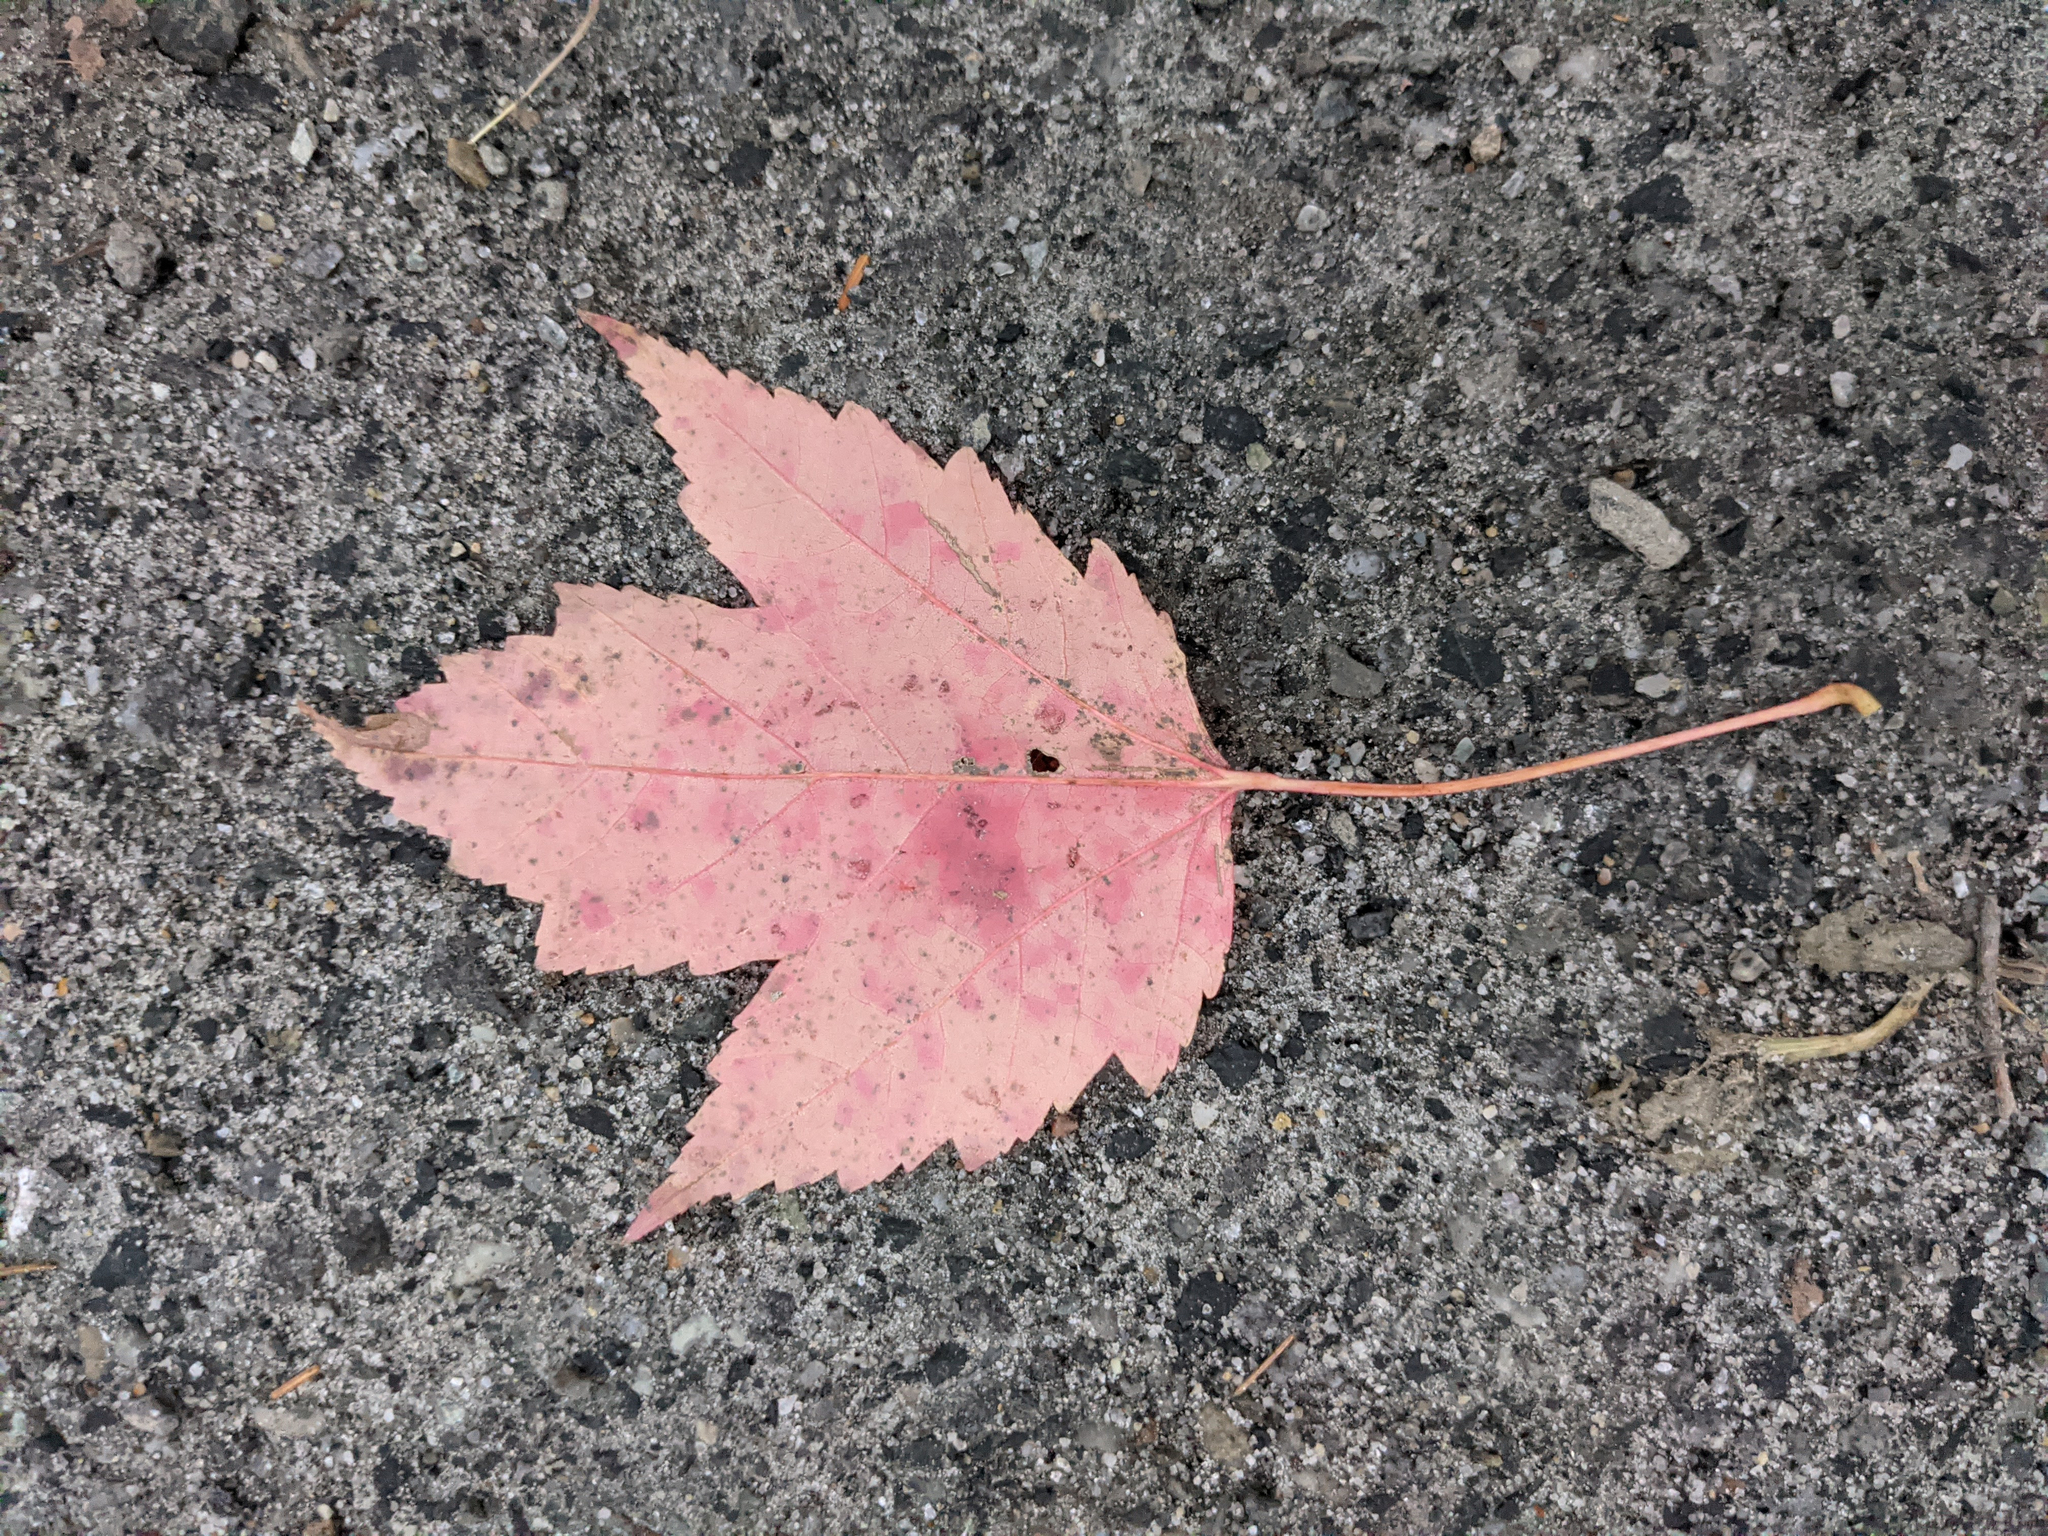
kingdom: Plantae
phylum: Tracheophyta
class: Magnoliopsida
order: Sapindales
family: Sapindaceae
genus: Acer
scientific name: Acer rubrum
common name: Red maple
